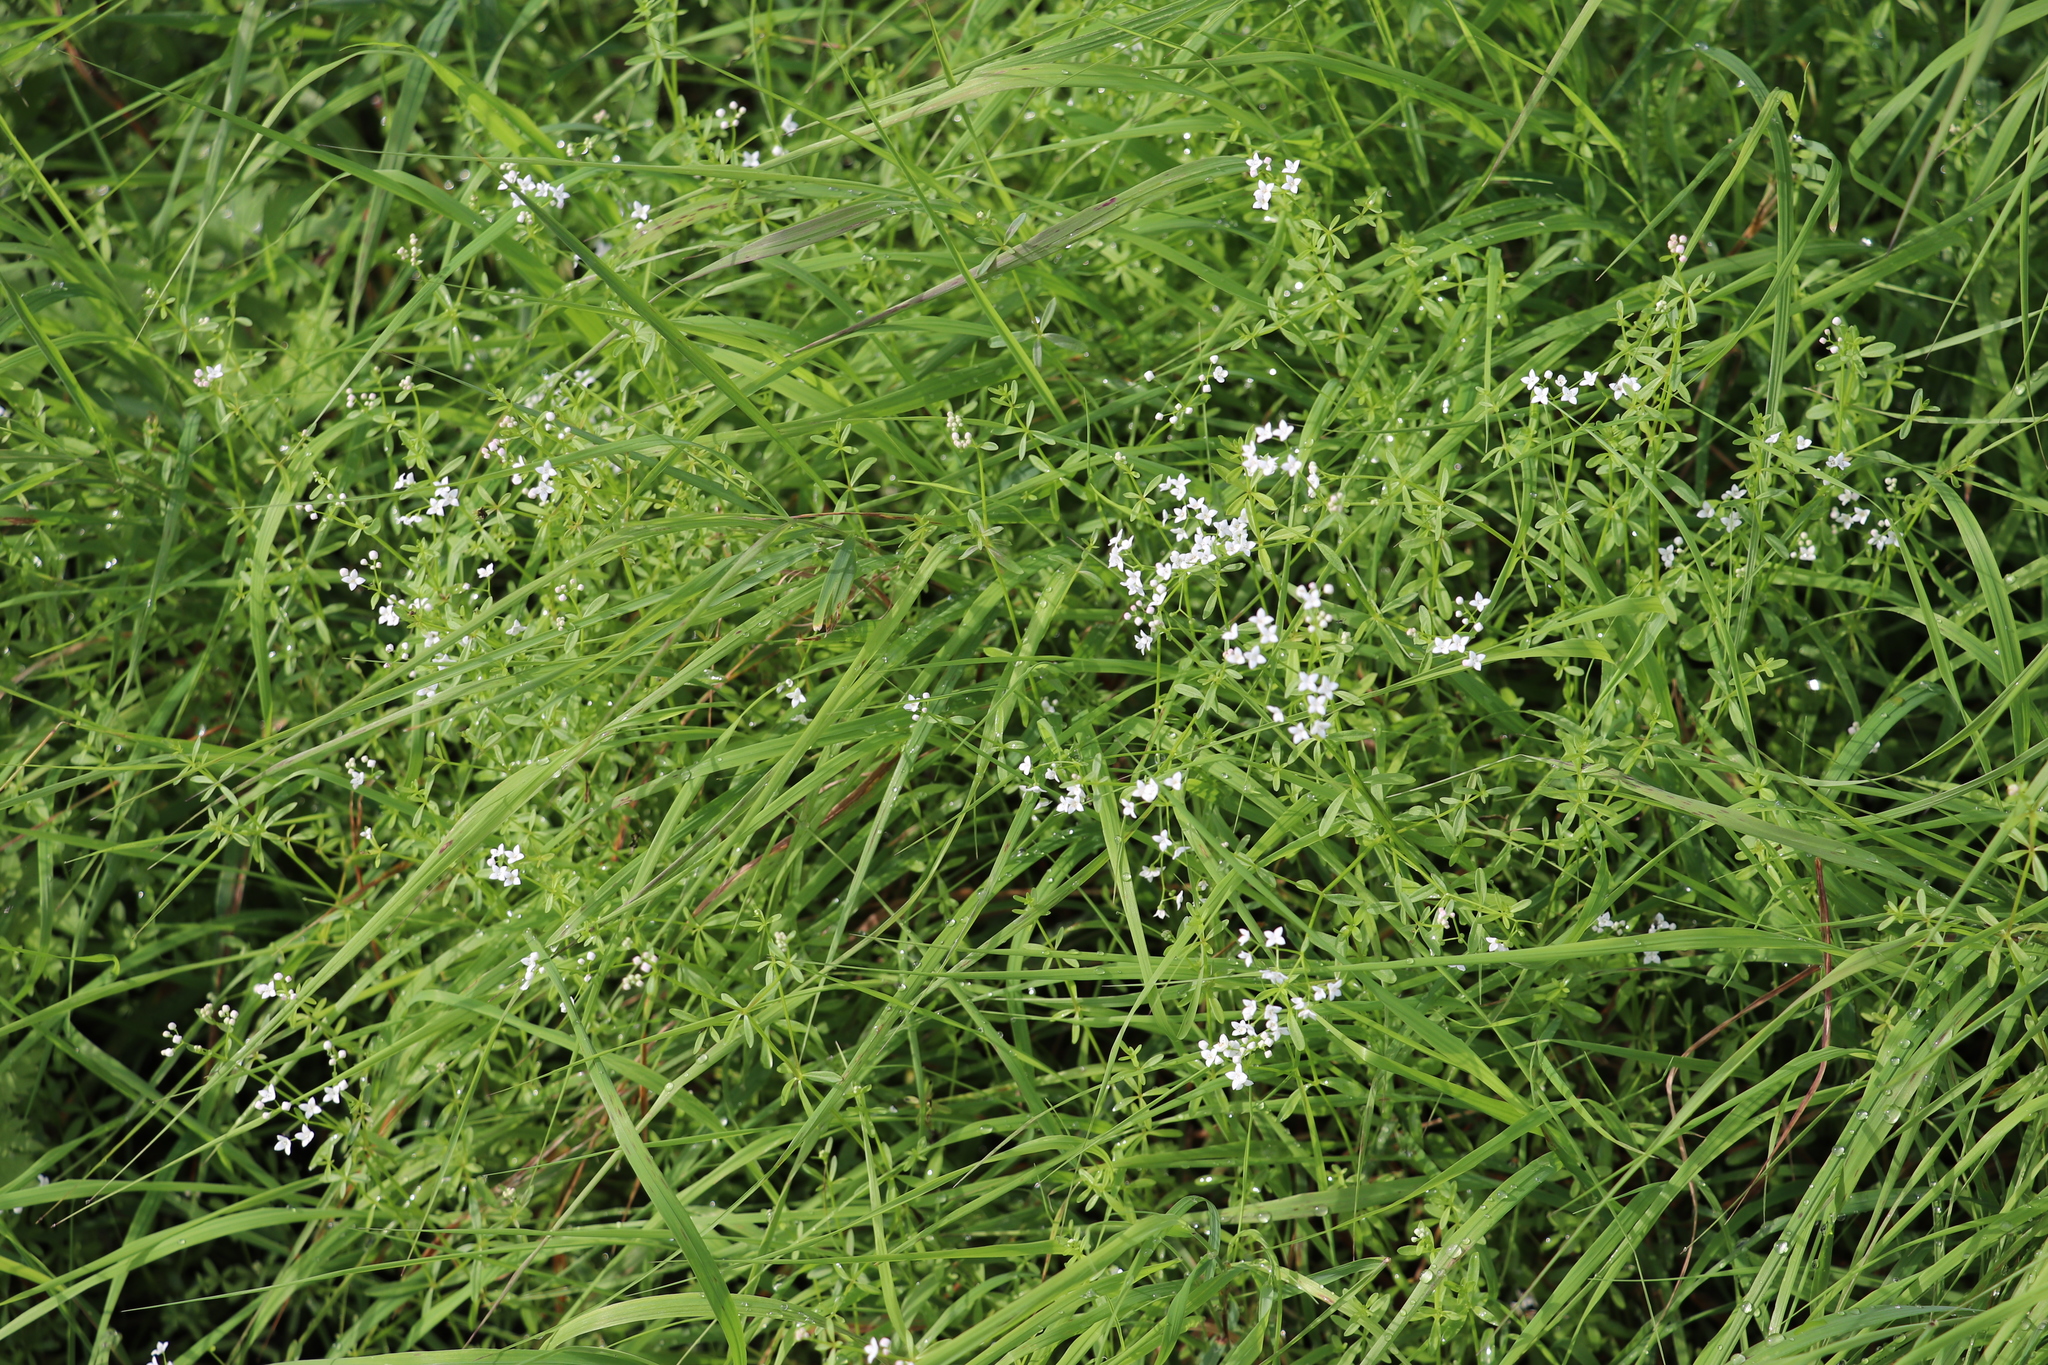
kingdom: Plantae
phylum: Tracheophyta
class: Magnoliopsida
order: Gentianales
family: Rubiaceae
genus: Galium
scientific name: Galium palustre
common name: Common marsh-bedstraw
